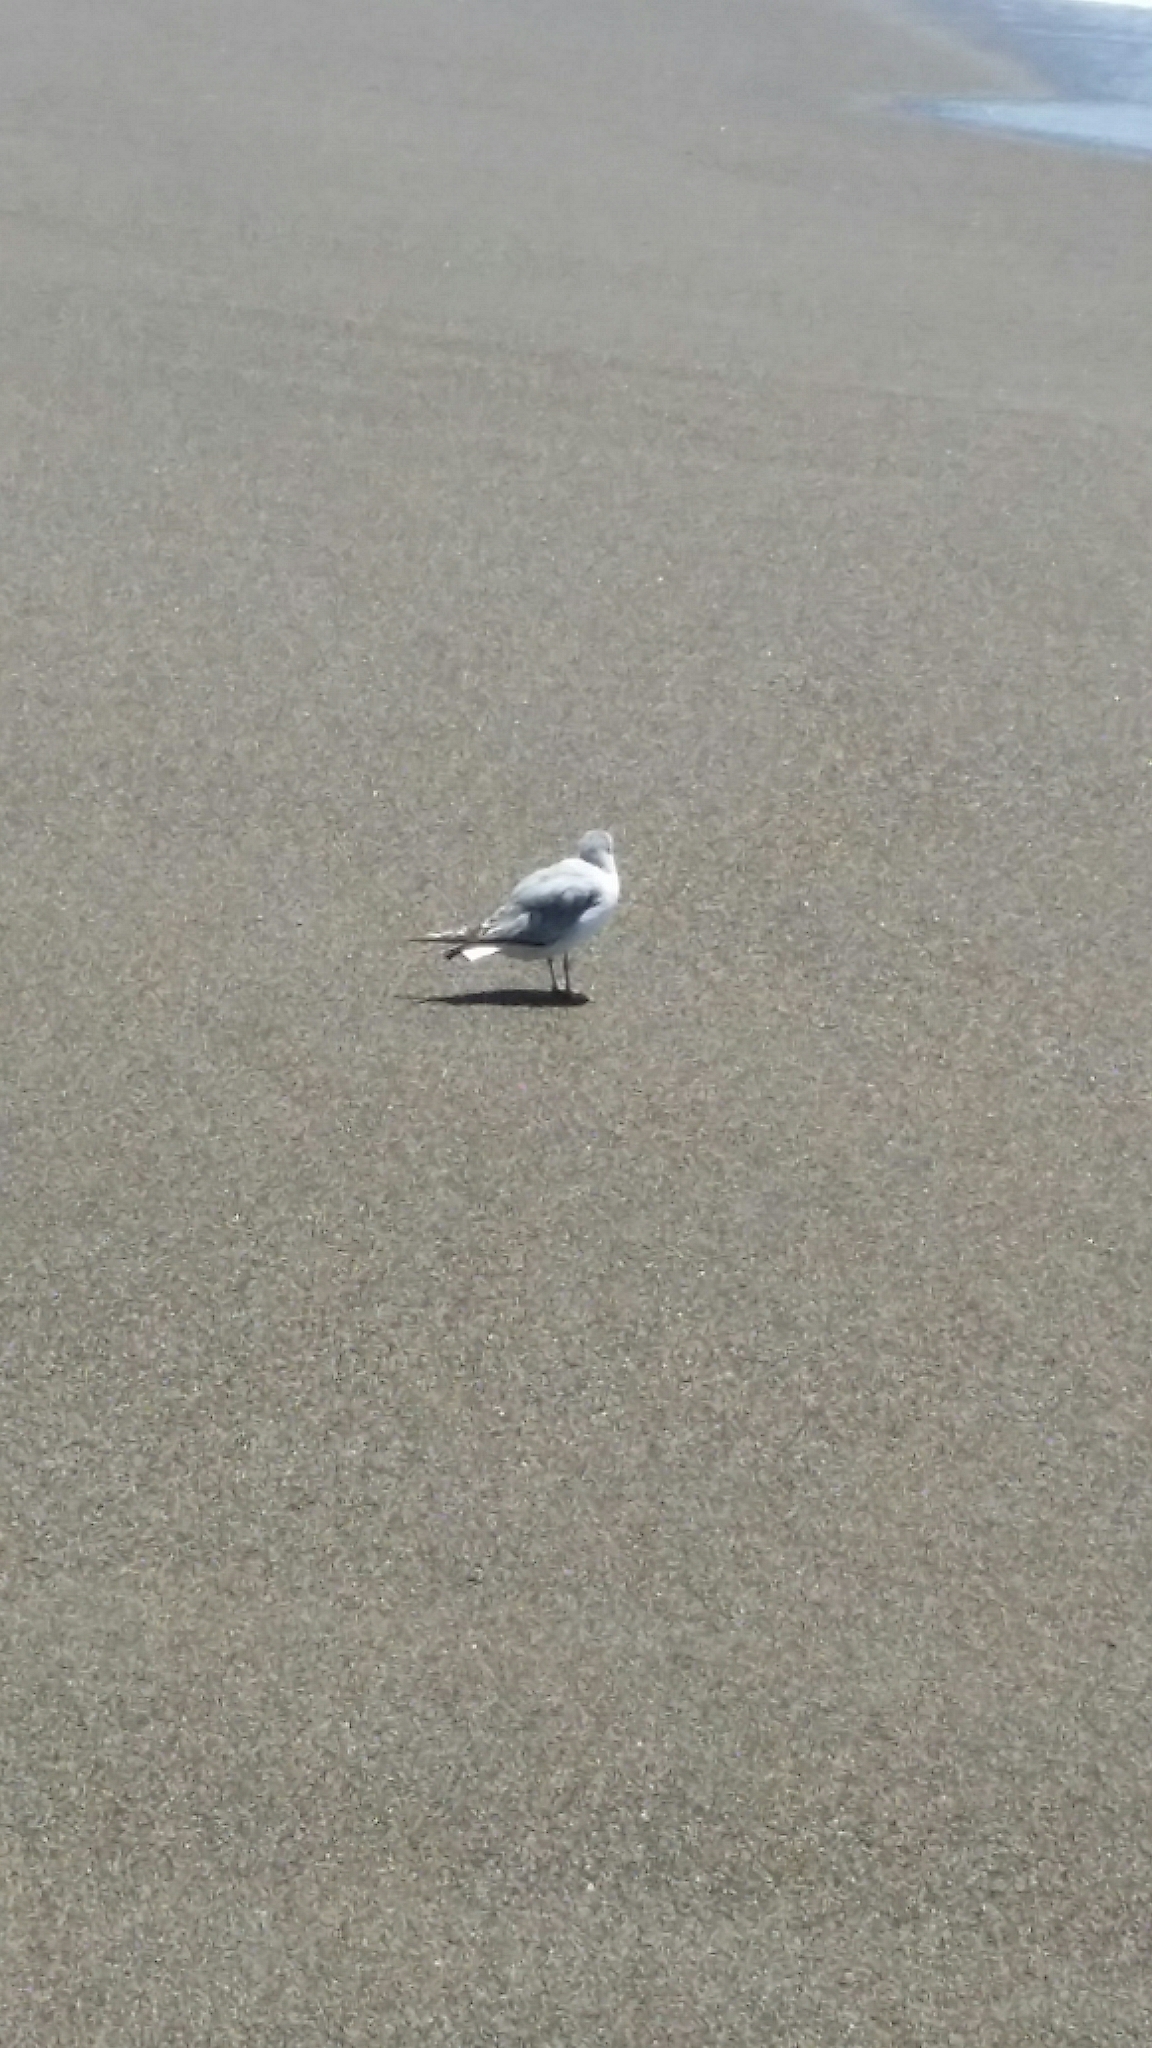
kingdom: Animalia
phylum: Chordata
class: Aves
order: Charadriiformes
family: Laridae
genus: Chroicocephalus
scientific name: Chroicocephalus philadelphia
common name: Bonaparte's gull
